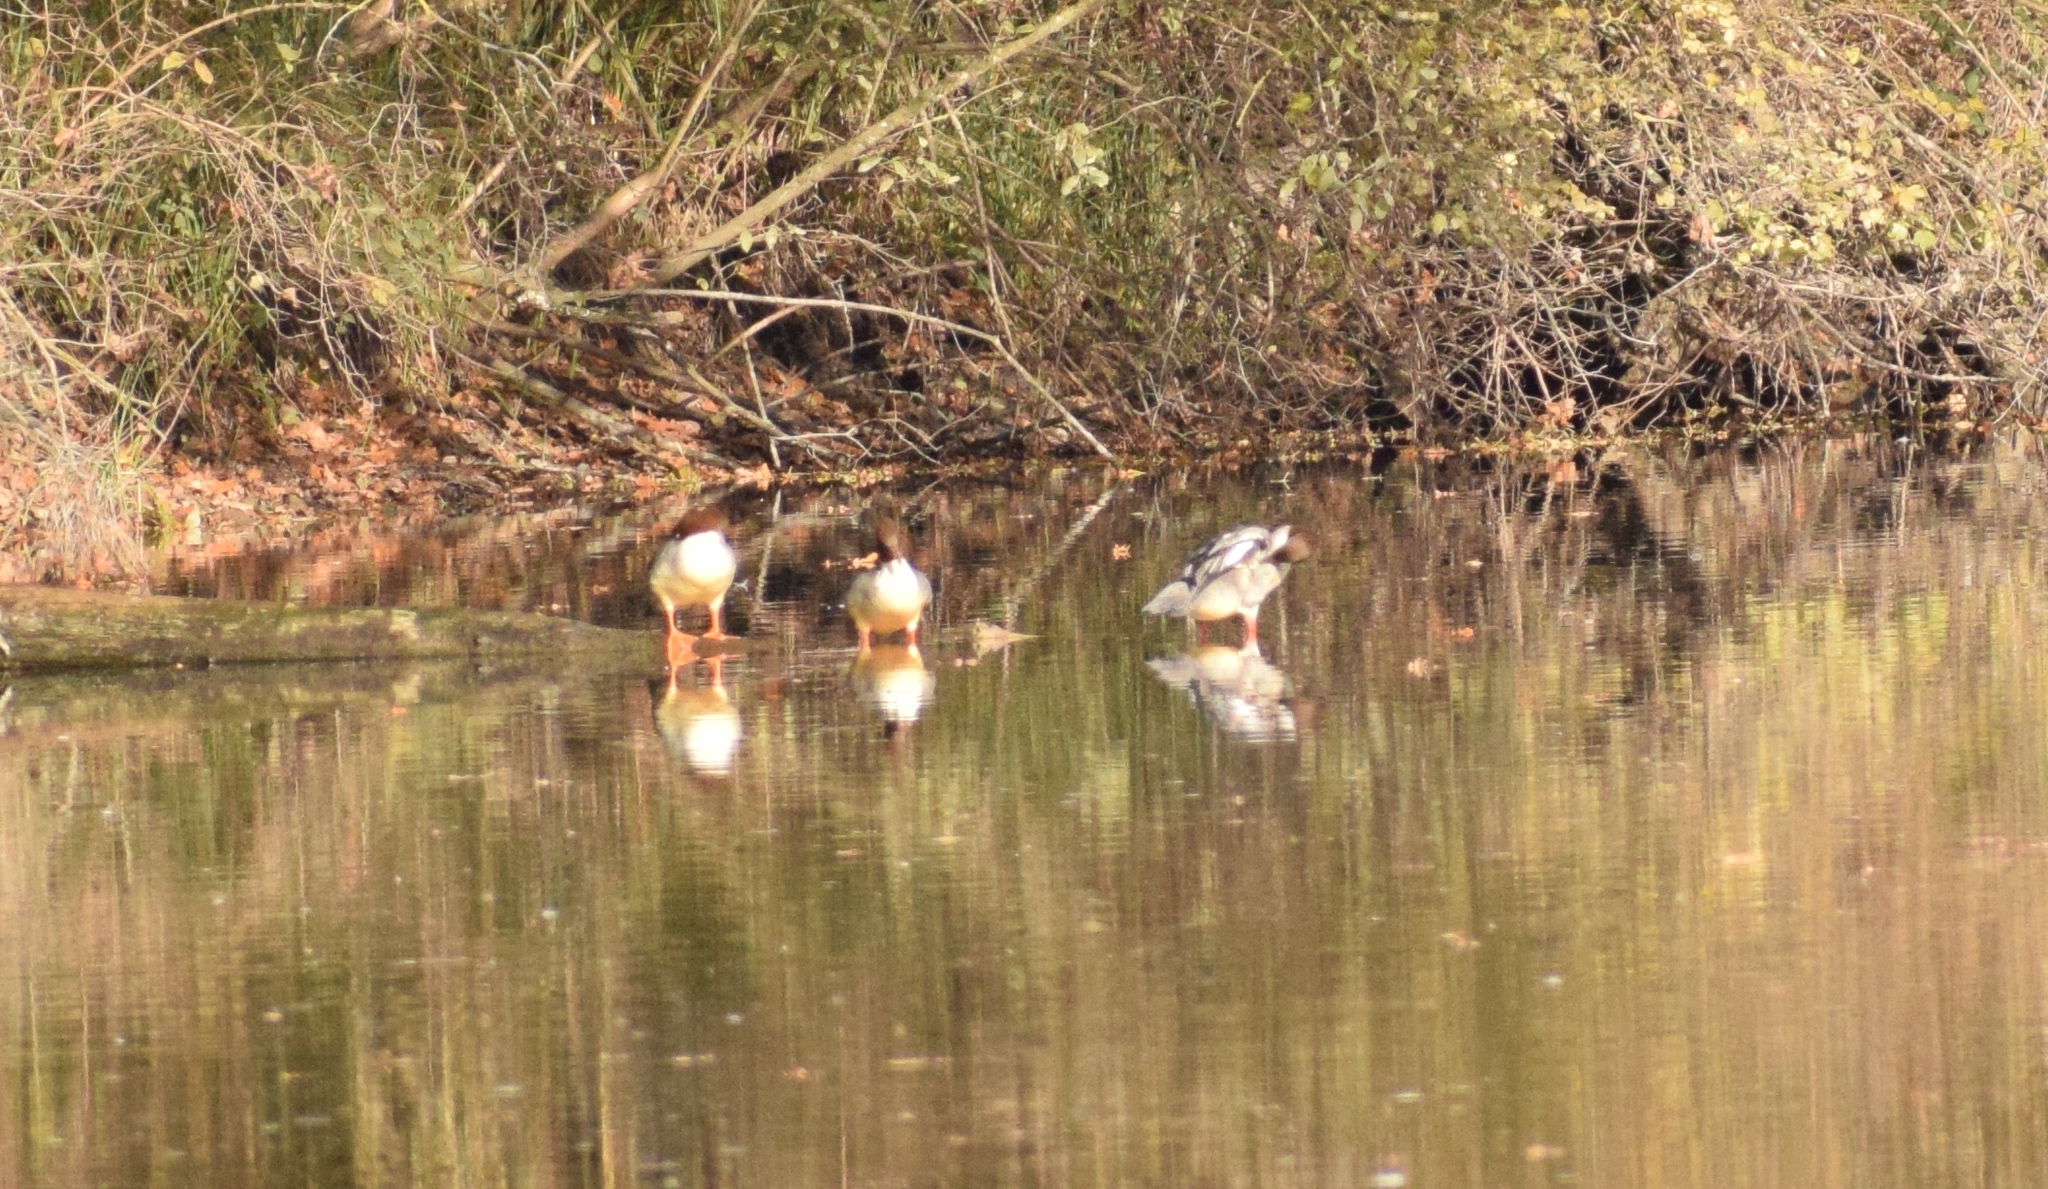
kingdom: Animalia
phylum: Chordata
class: Aves
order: Anseriformes
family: Anatidae
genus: Mergus
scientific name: Mergus merganser
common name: Common merganser
